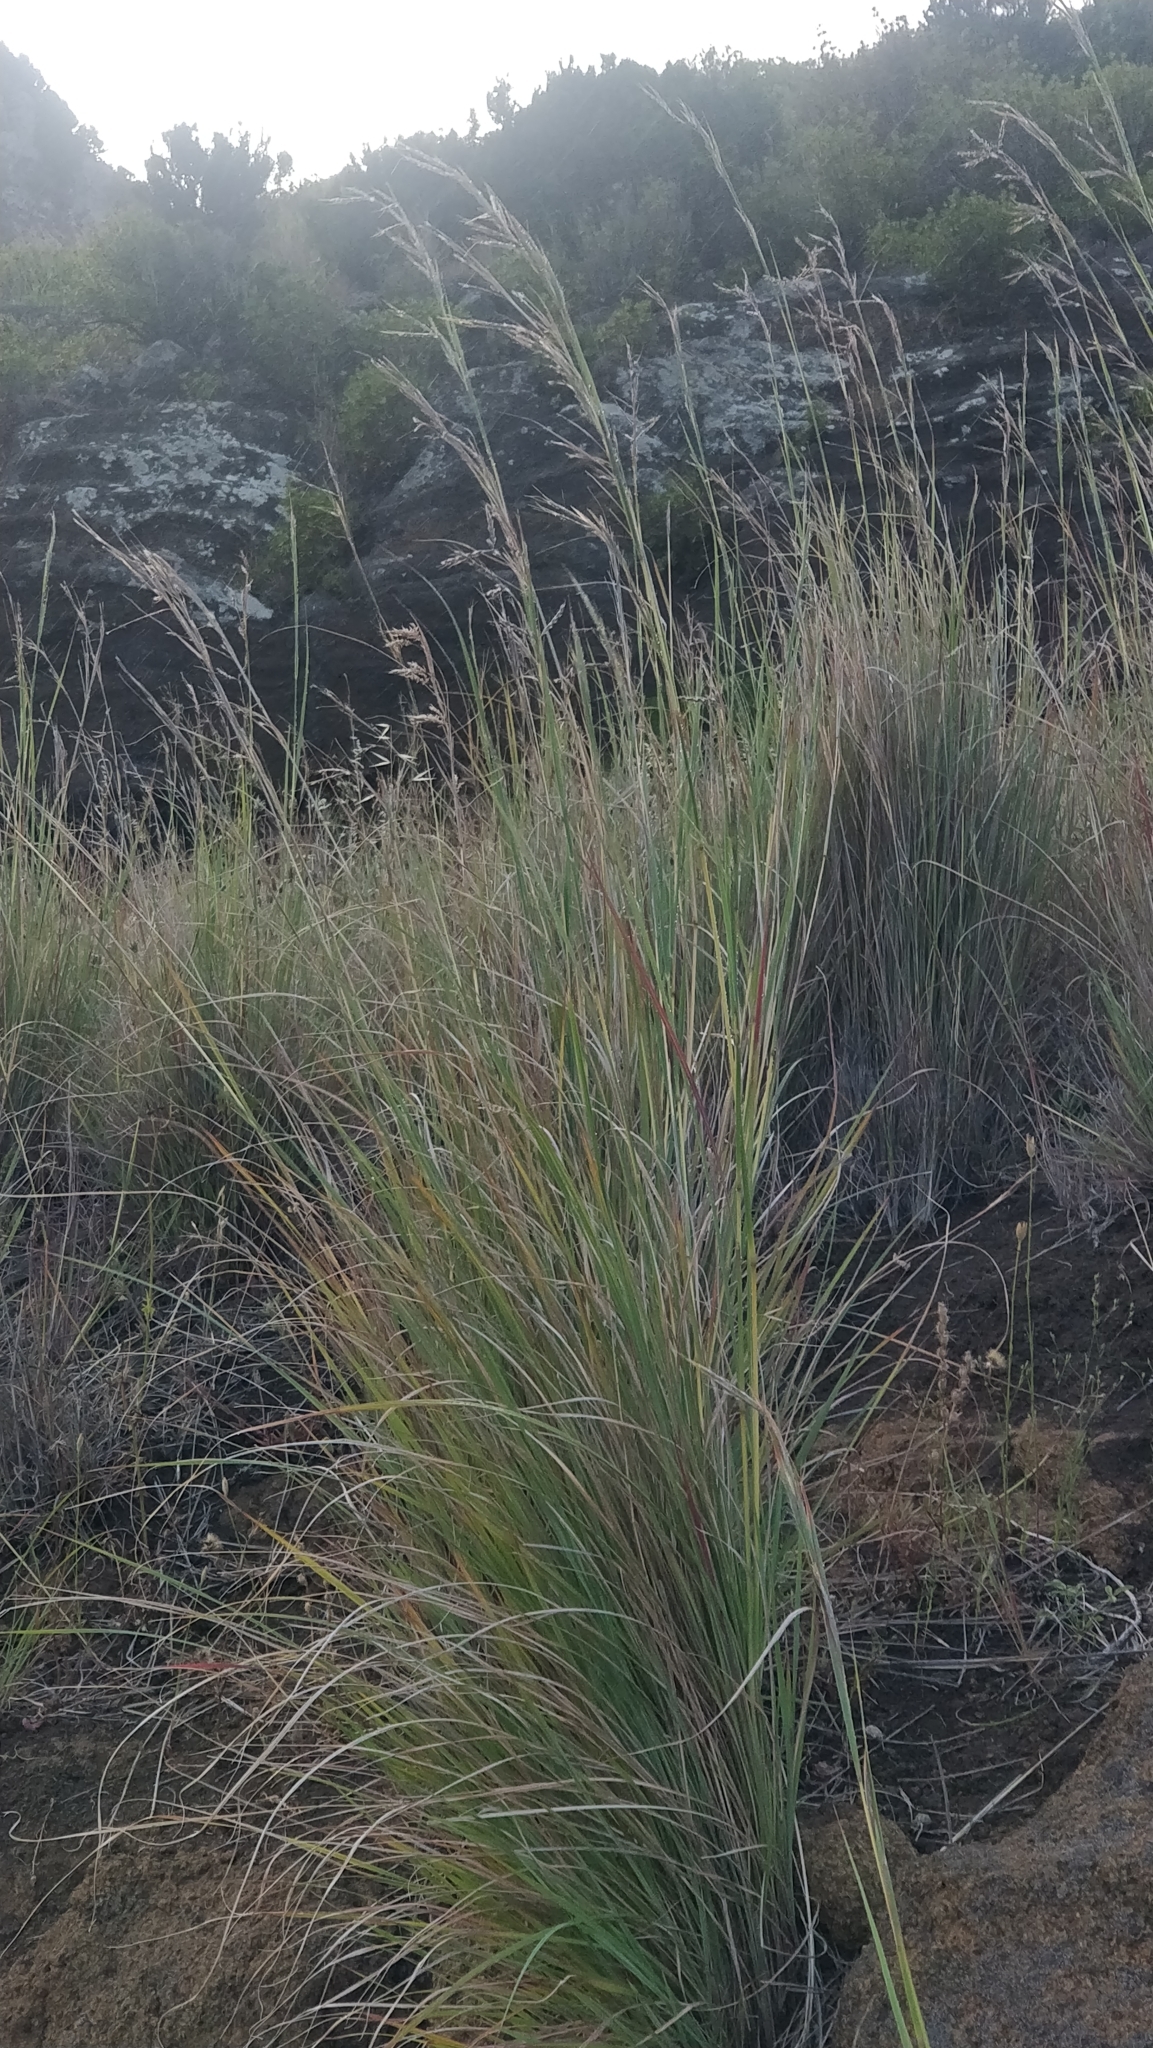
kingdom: Plantae
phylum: Tracheophyta
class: Liliopsida
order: Poales
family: Poaceae
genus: Hyparrhenia
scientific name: Hyparrhenia hirta
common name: Thatching grass
